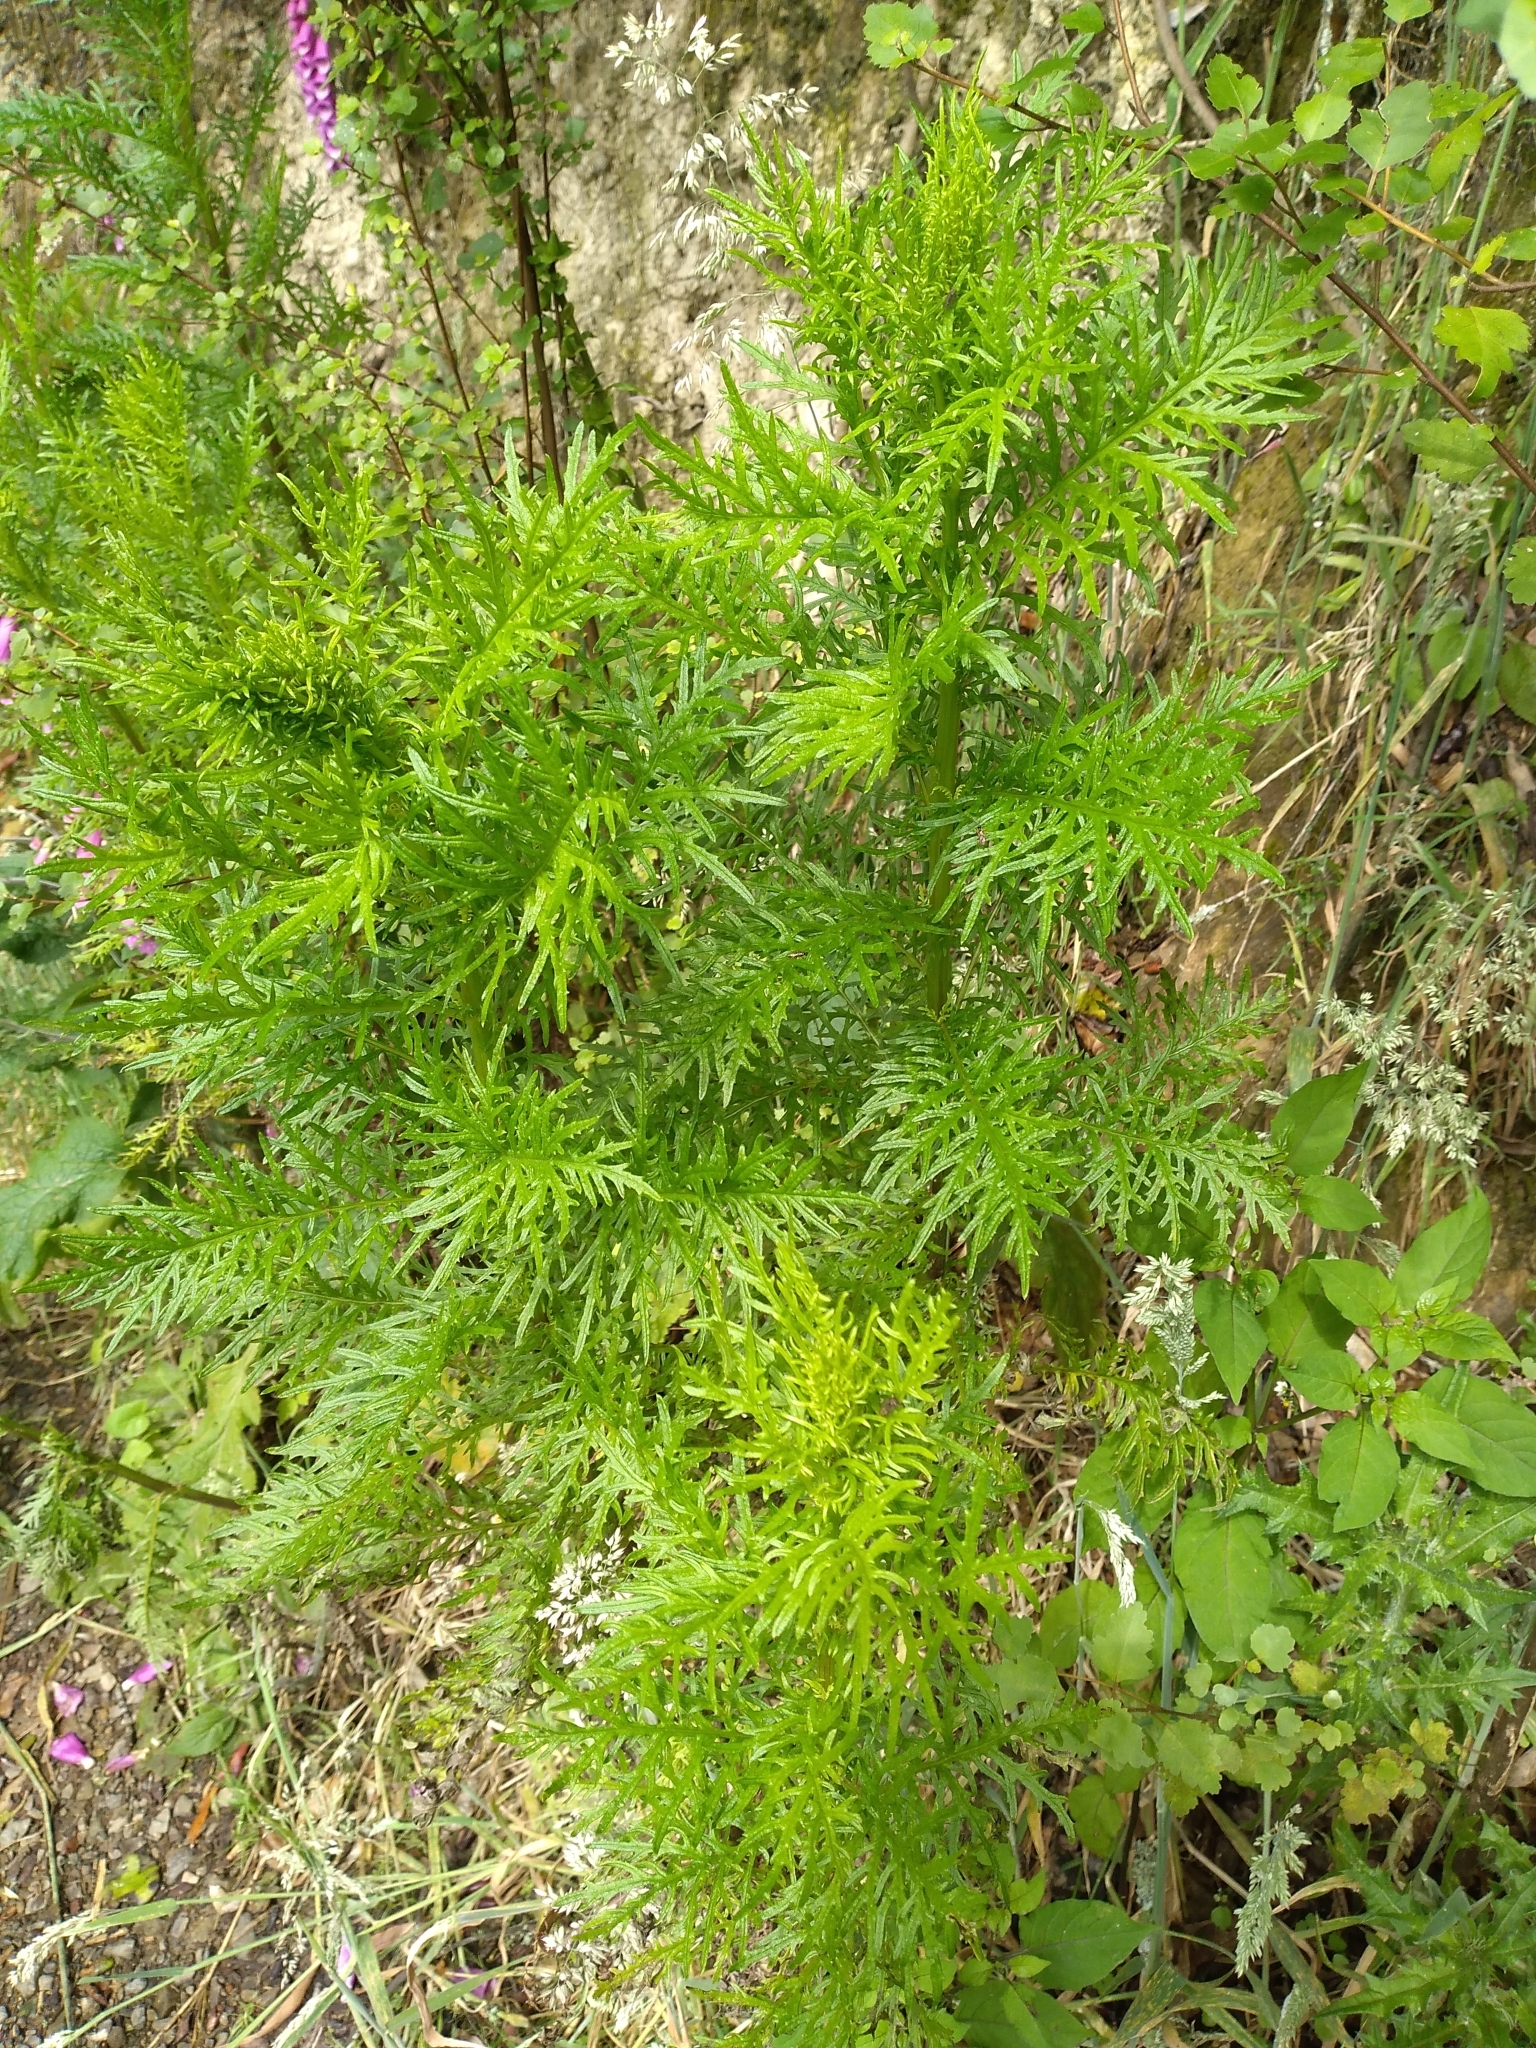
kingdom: Plantae
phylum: Tracheophyta
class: Magnoliopsida
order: Asterales
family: Asteraceae
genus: Senecio
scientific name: Senecio bipinnatisectus
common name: Australian fireweed
